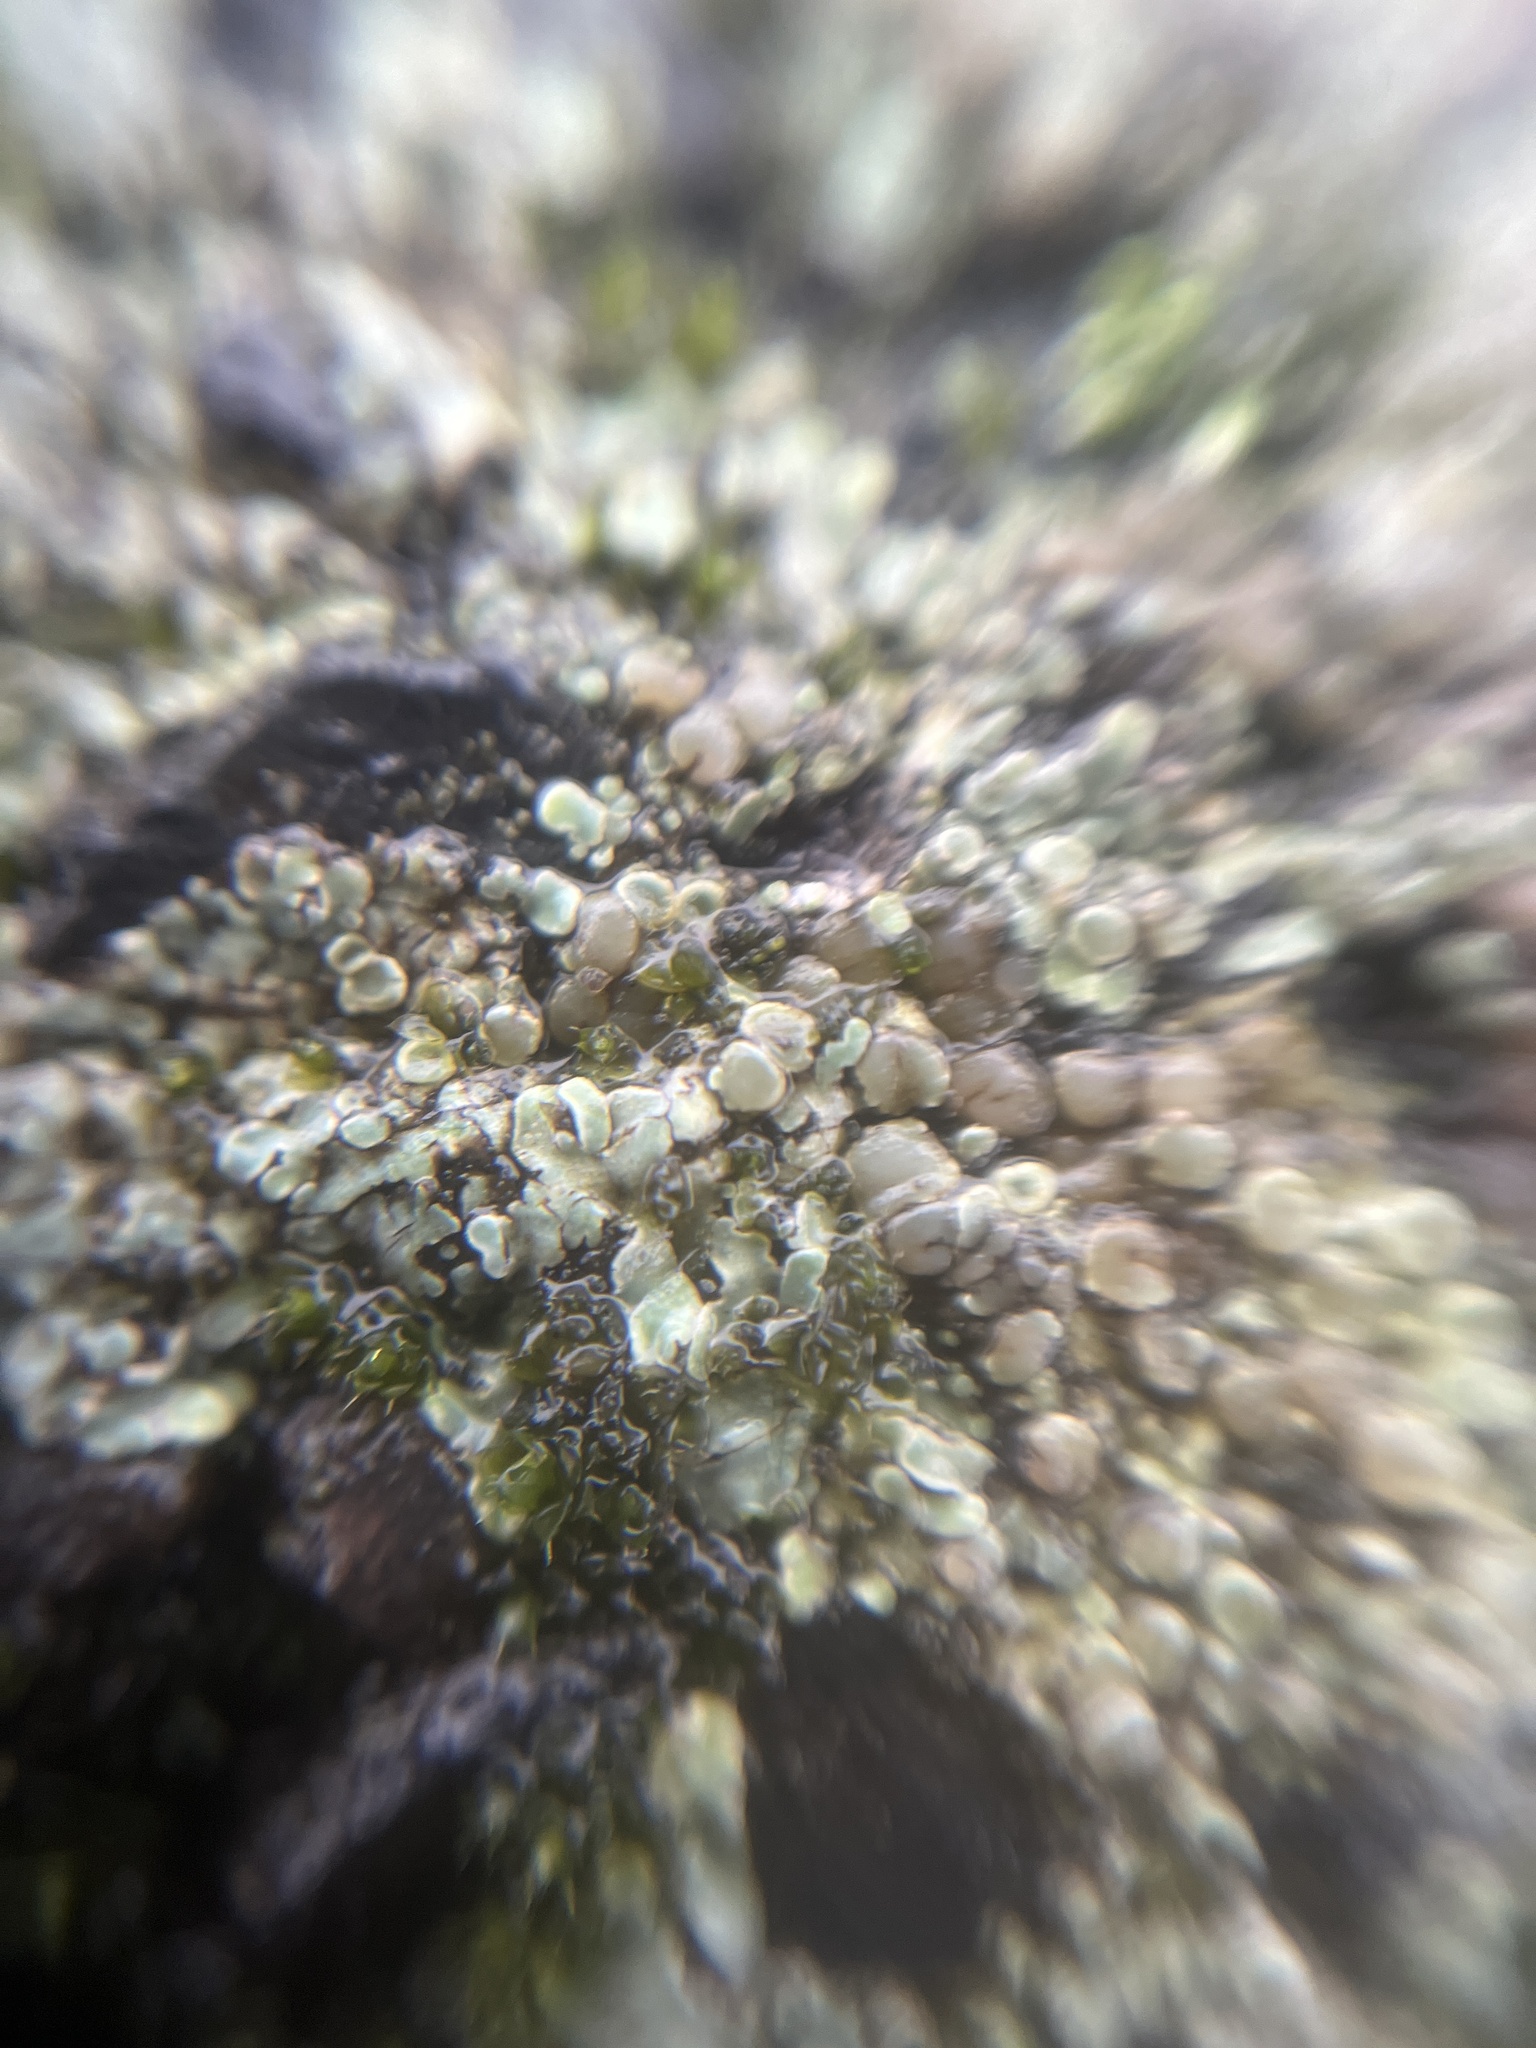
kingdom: Fungi
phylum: Ascomycota
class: Lecanoromycetes
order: Lecanorales
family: Lecanoraceae
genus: Protoparmeliopsis
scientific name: Protoparmeliopsis muralis
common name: Stonewall rim lichen
